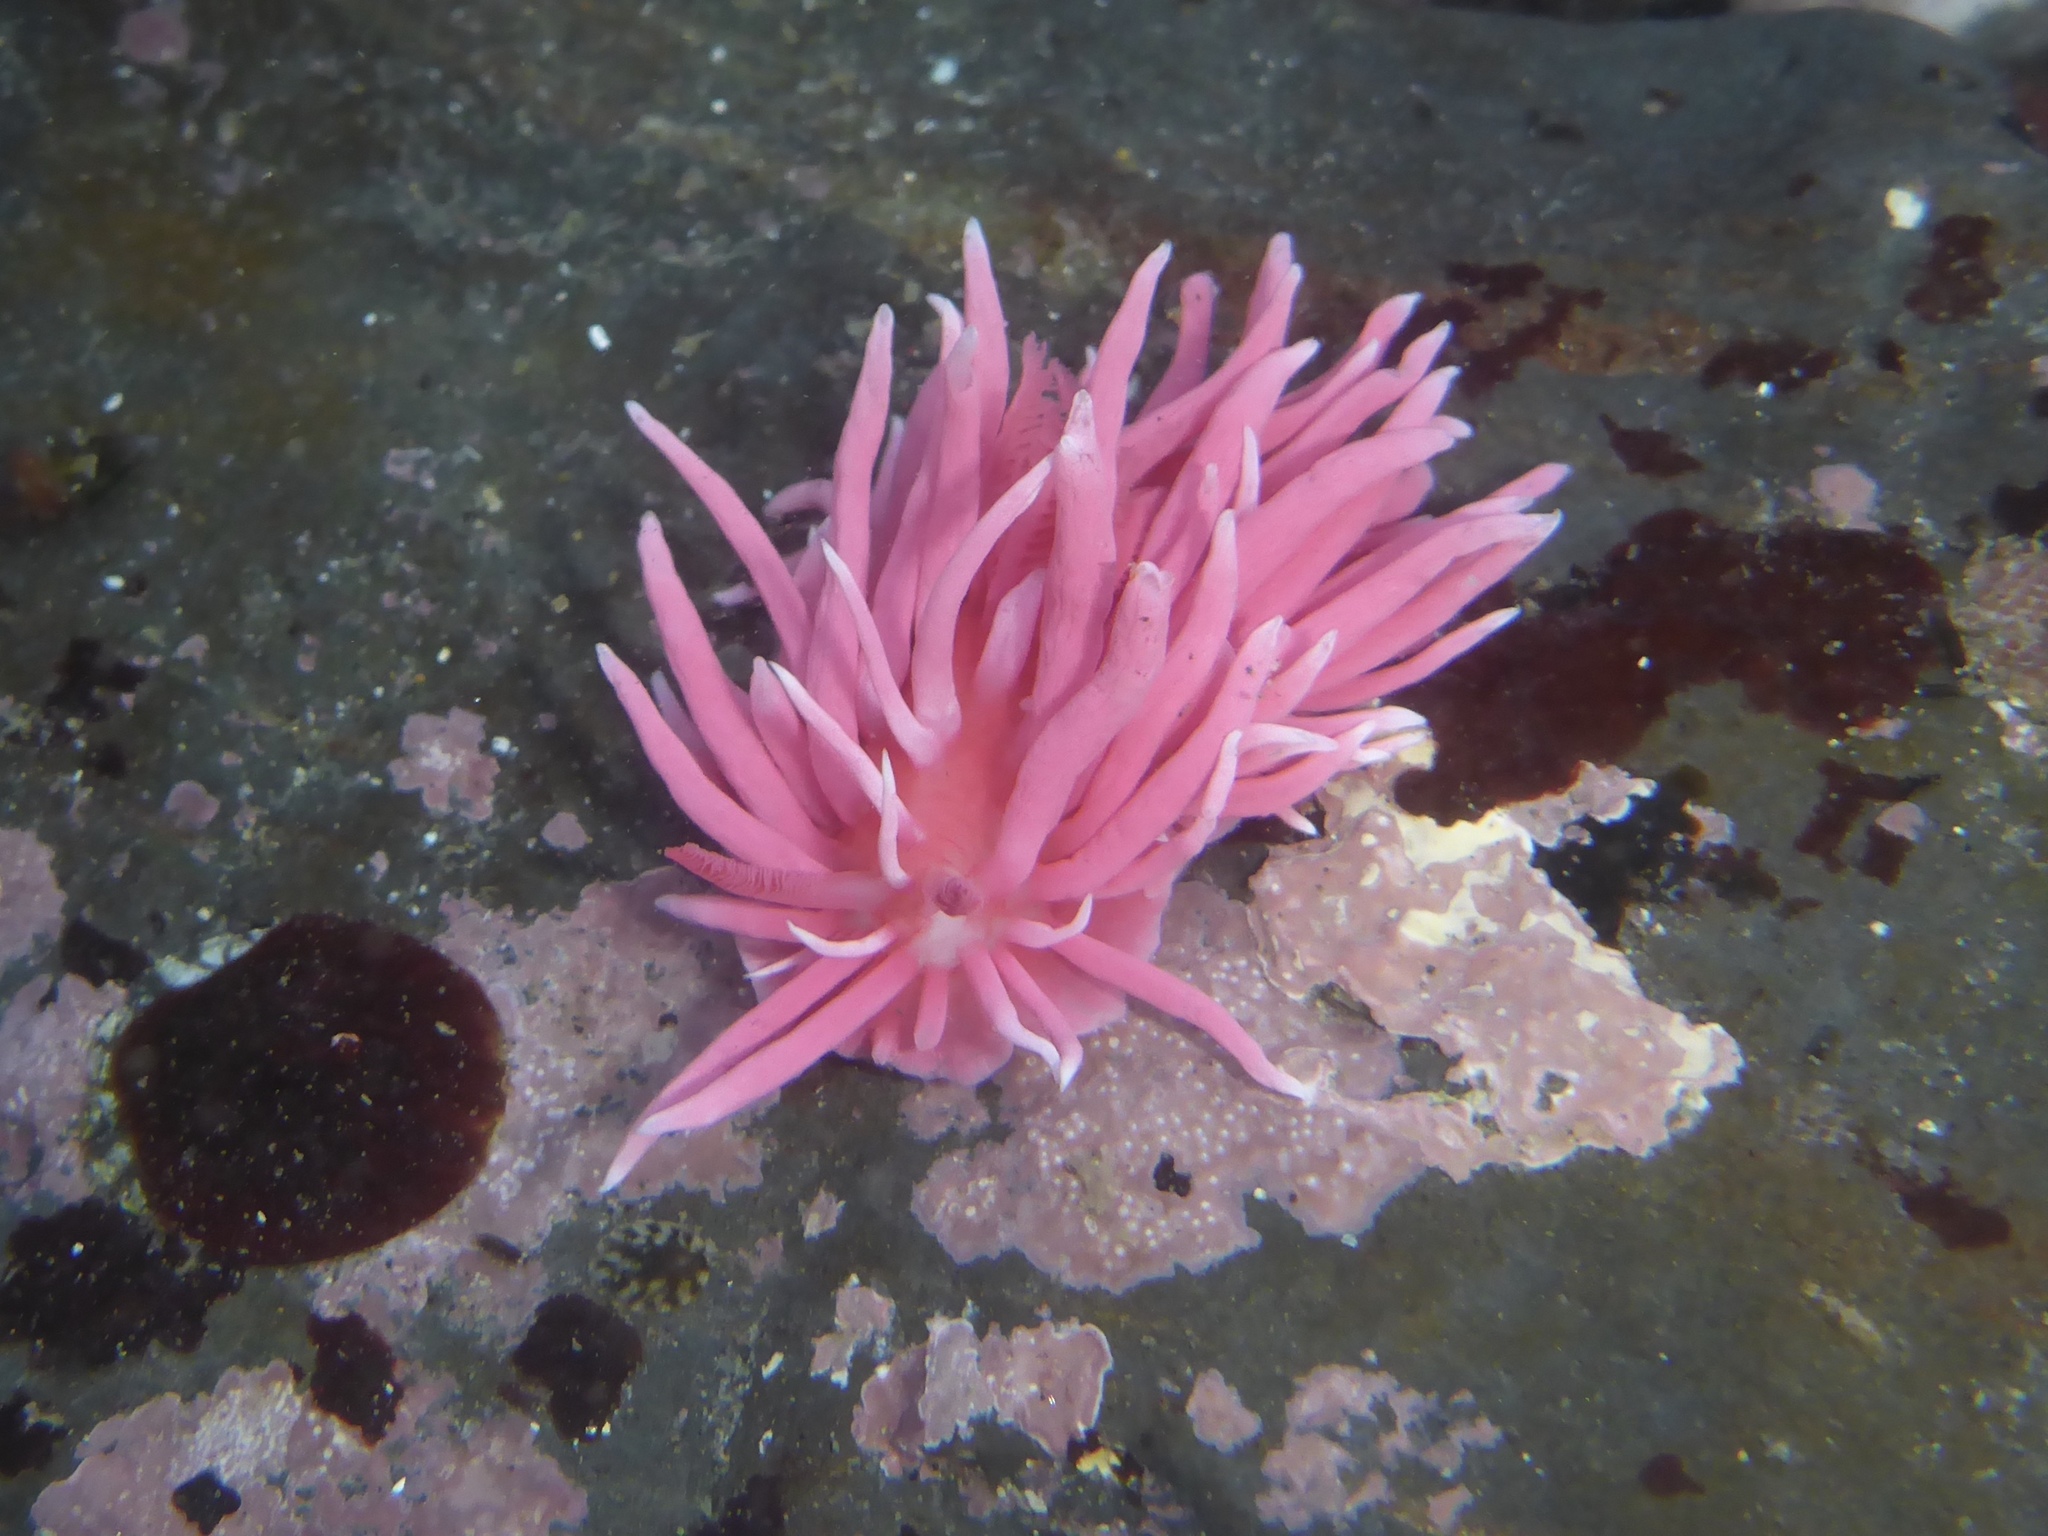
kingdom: Animalia
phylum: Mollusca
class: Gastropoda
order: Nudibranchia
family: Goniodorididae
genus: Okenia
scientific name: Okenia
